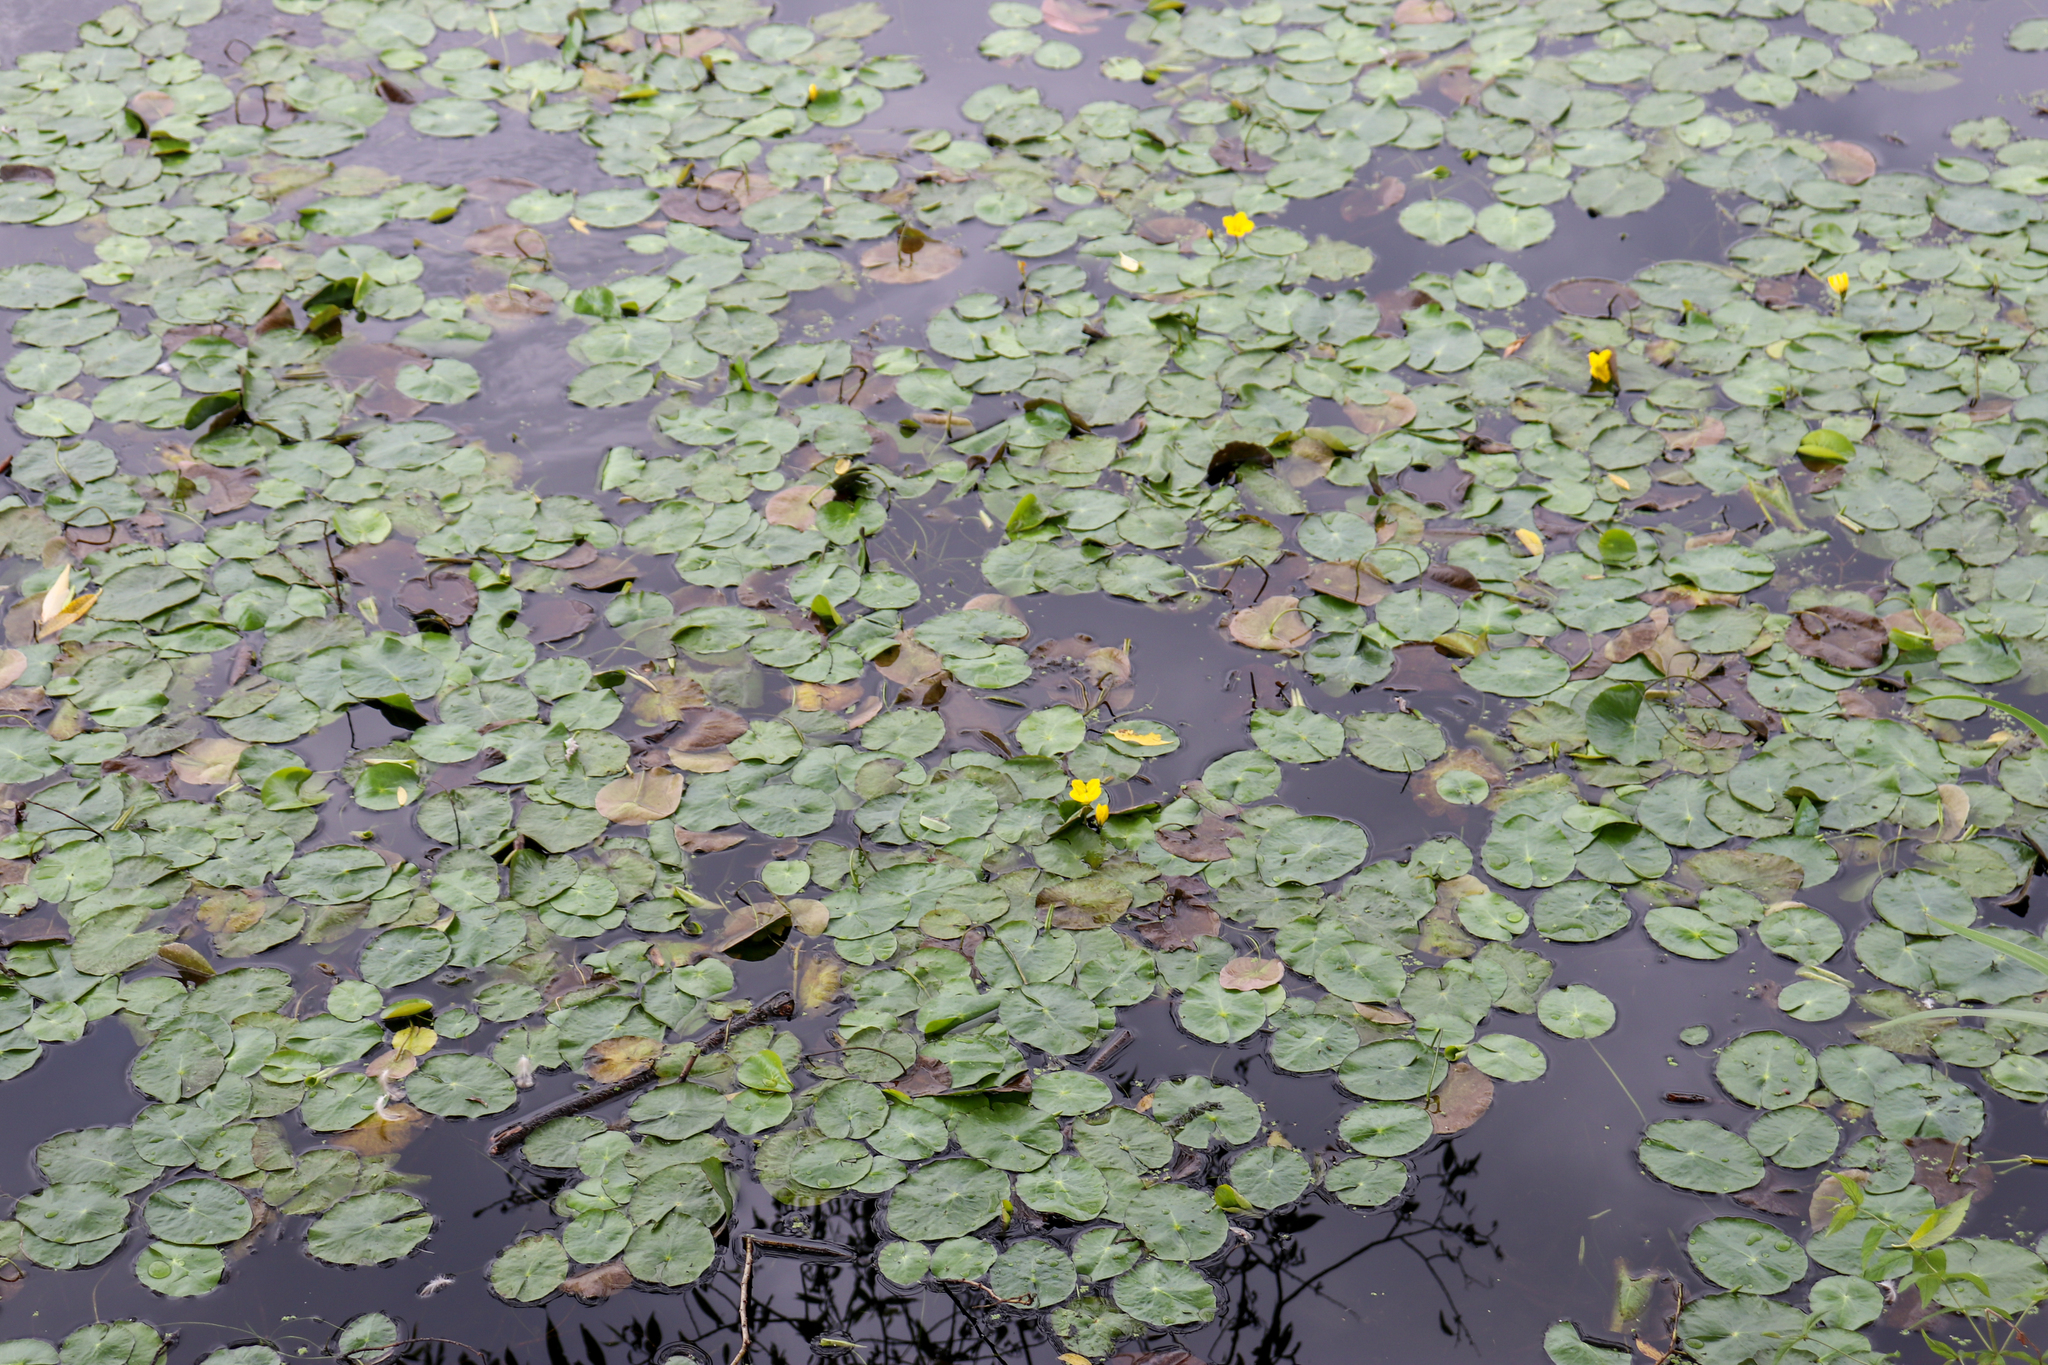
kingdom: Plantae
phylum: Tracheophyta
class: Magnoliopsida
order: Asterales
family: Menyanthaceae
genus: Nymphoides
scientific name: Nymphoides peltata
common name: Fringed water-lily
